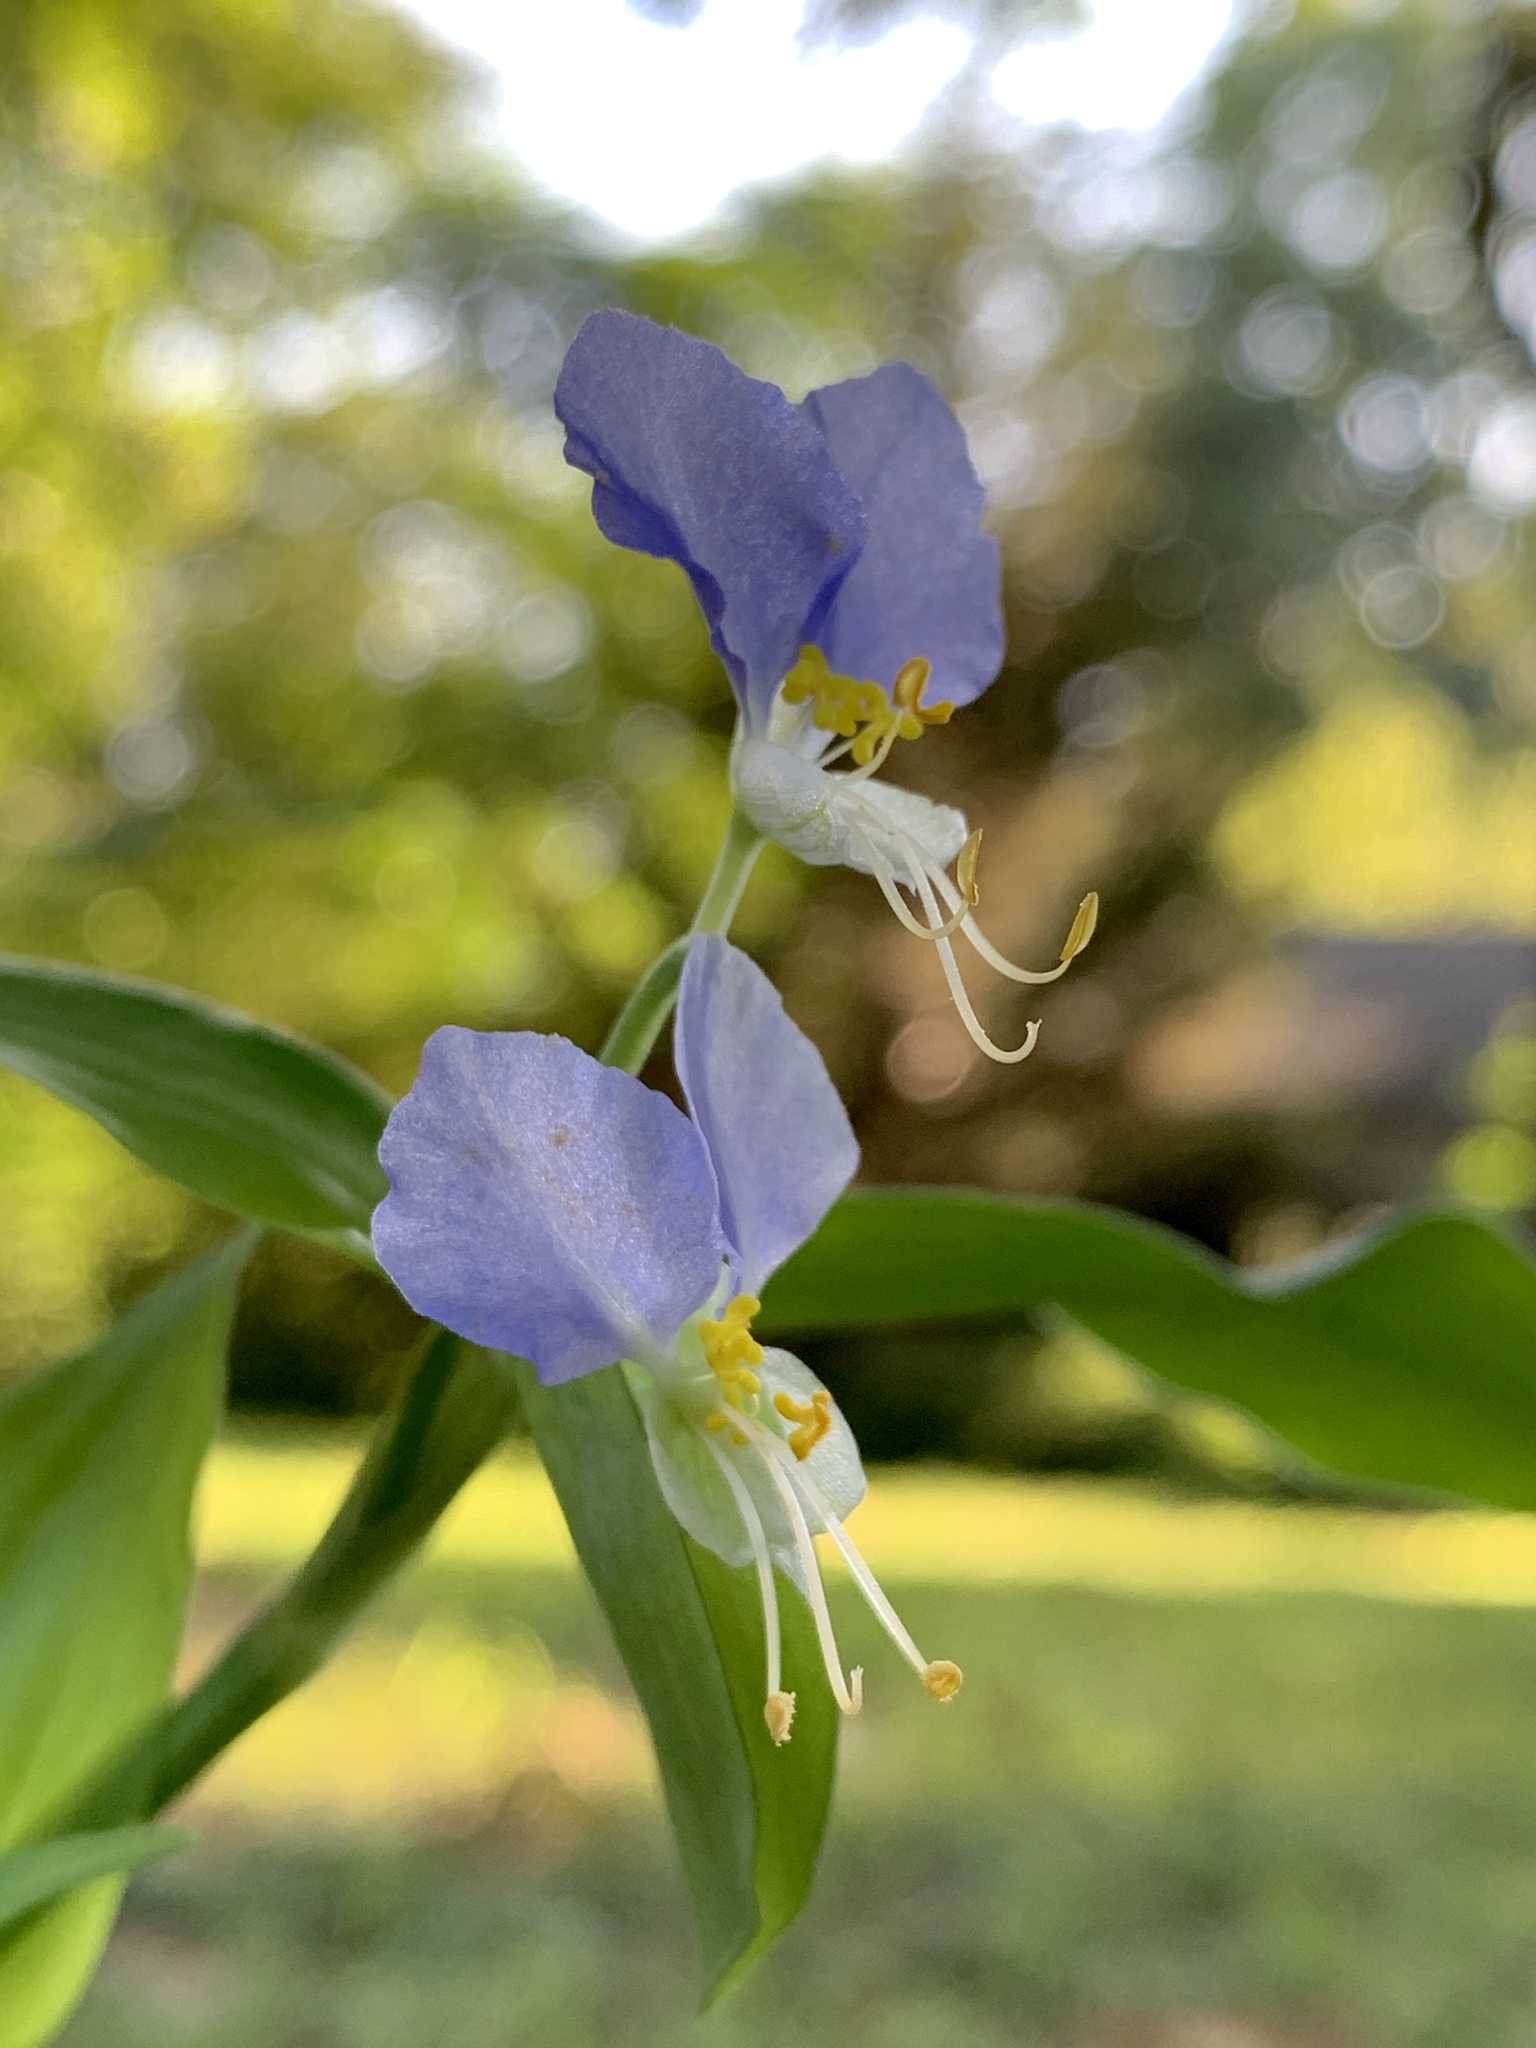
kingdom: Plantae
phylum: Tracheophyta
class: Liliopsida
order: Commelinales
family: Commelinaceae
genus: Commelina
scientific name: Commelina communis
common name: Asiatic dayflower
